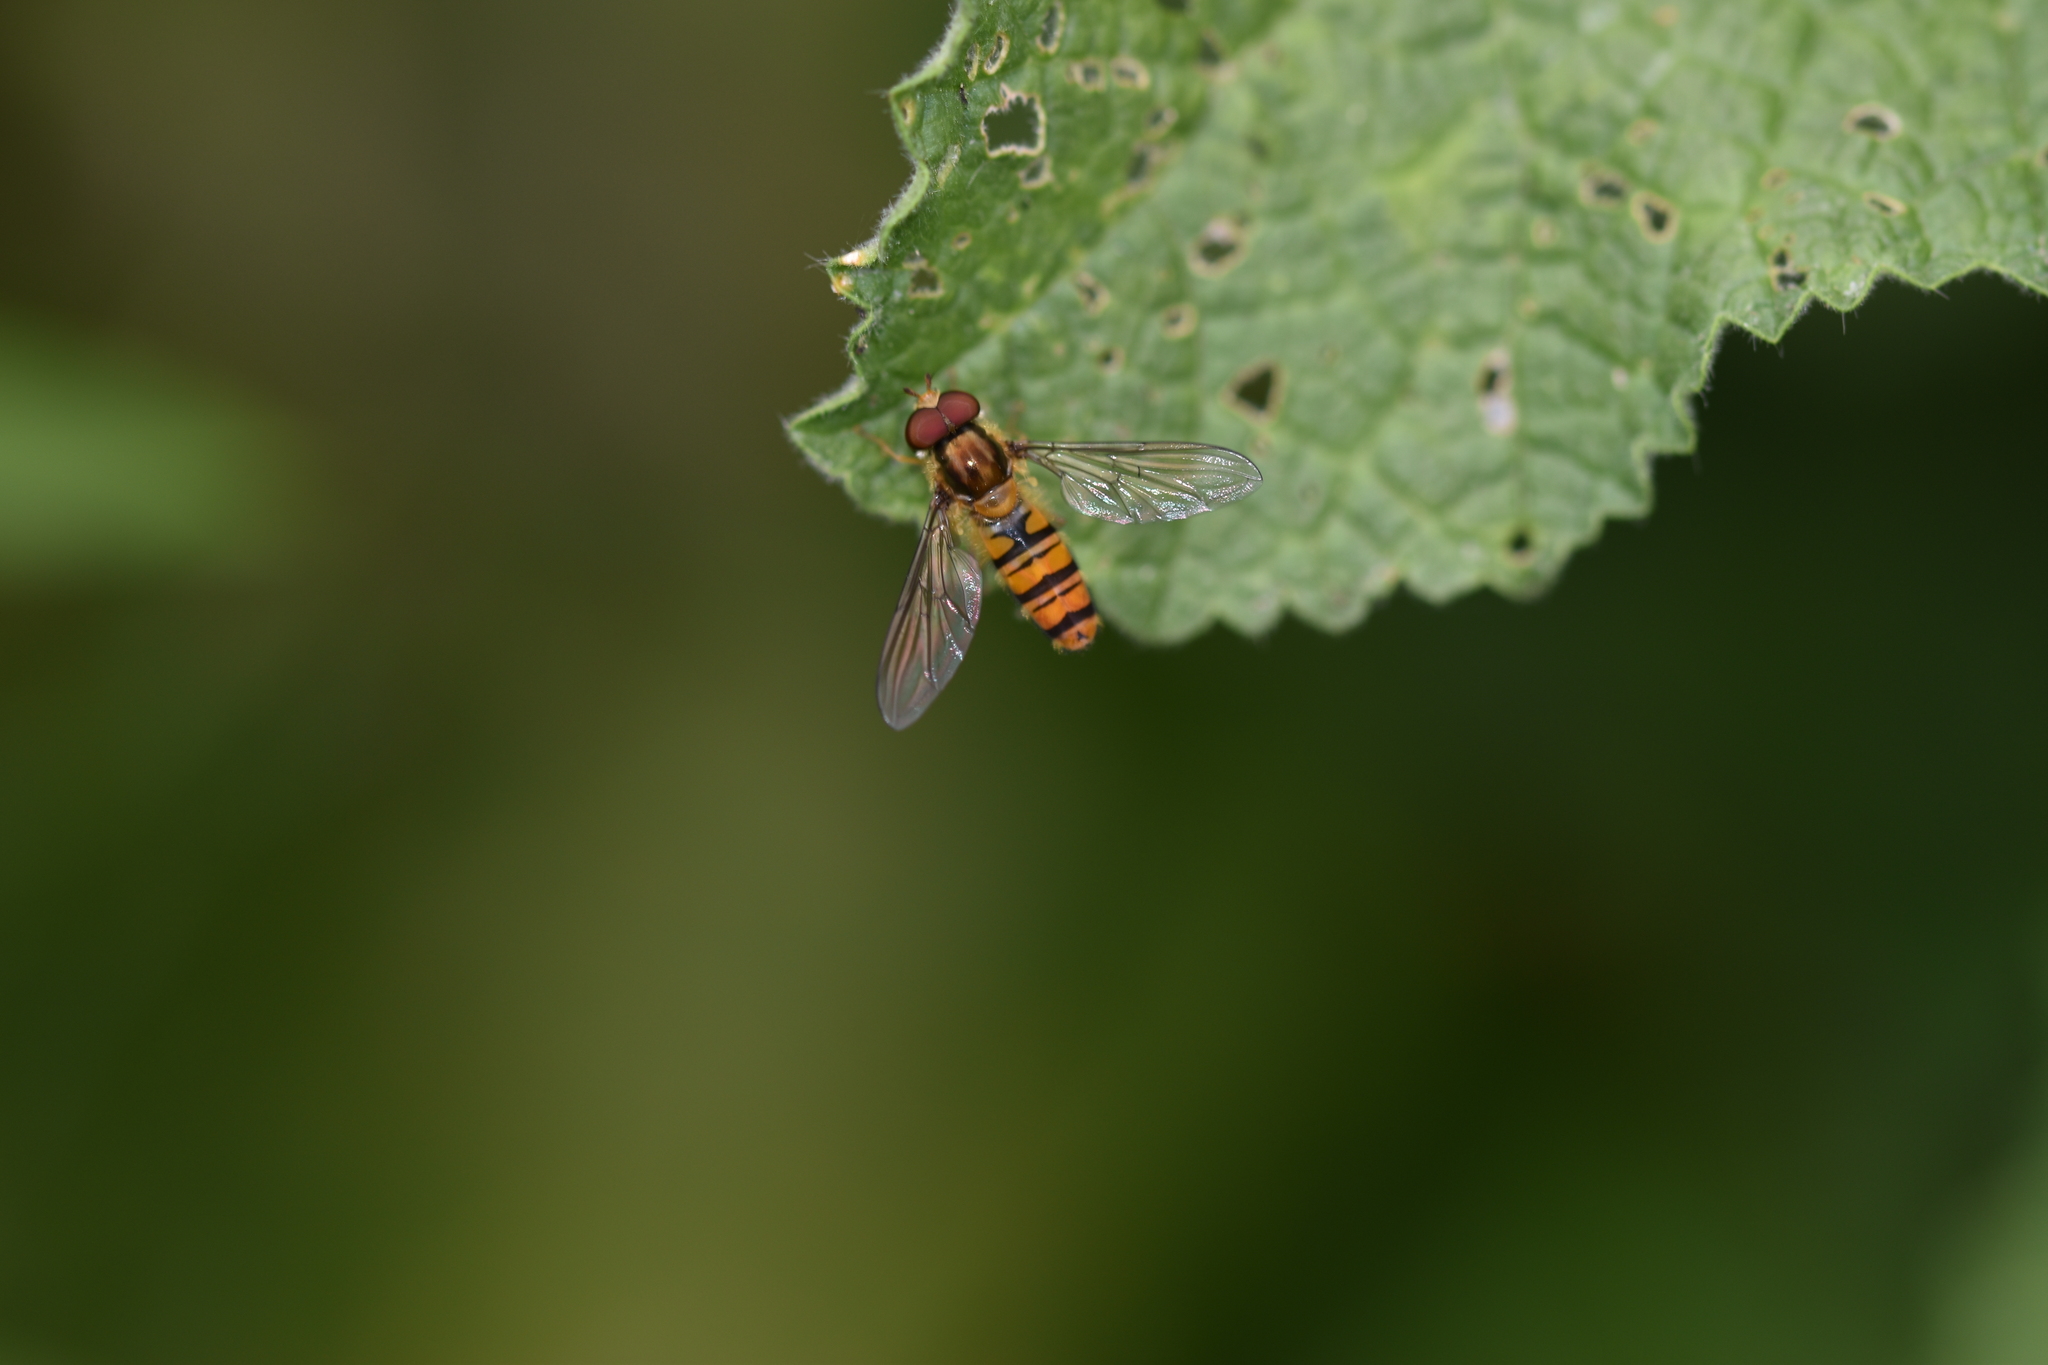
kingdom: Animalia
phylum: Arthropoda
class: Insecta
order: Diptera
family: Syrphidae
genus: Episyrphus
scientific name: Episyrphus balteatus
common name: Marmalade hoverfly
